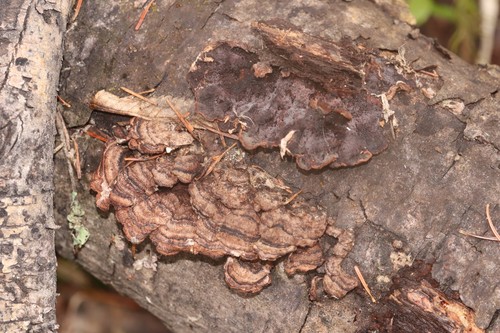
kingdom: Fungi
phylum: Basidiomycota
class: Agaricomycetes
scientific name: Agaricomycetes
